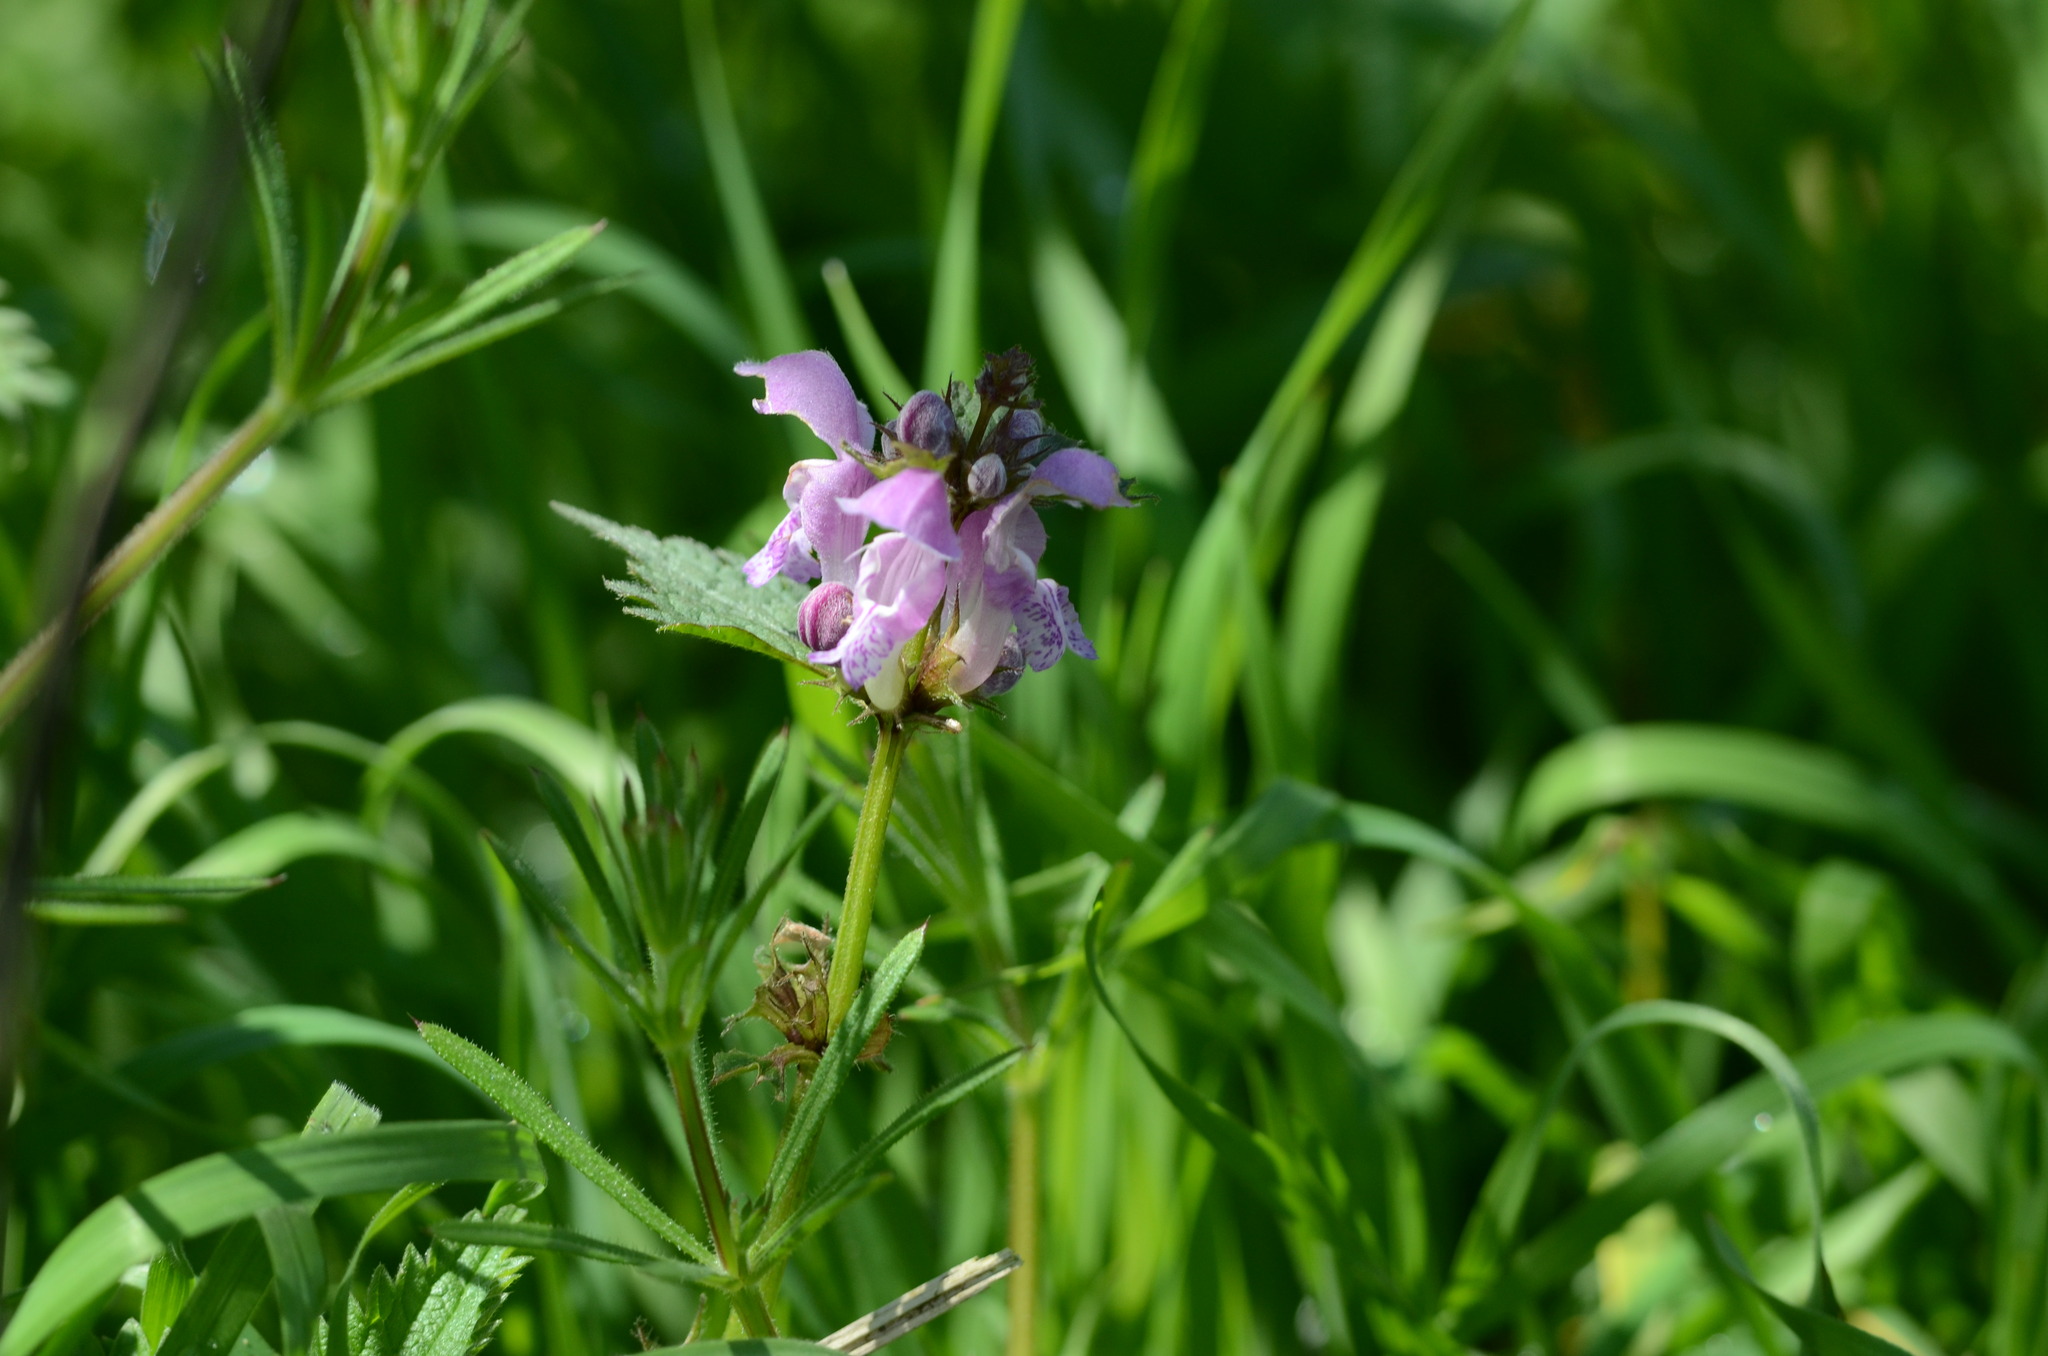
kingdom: Plantae
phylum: Tracheophyta
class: Magnoliopsida
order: Lamiales
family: Lamiaceae
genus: Lamium
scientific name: Lamium maculatum
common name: Spotted dead-nettle
